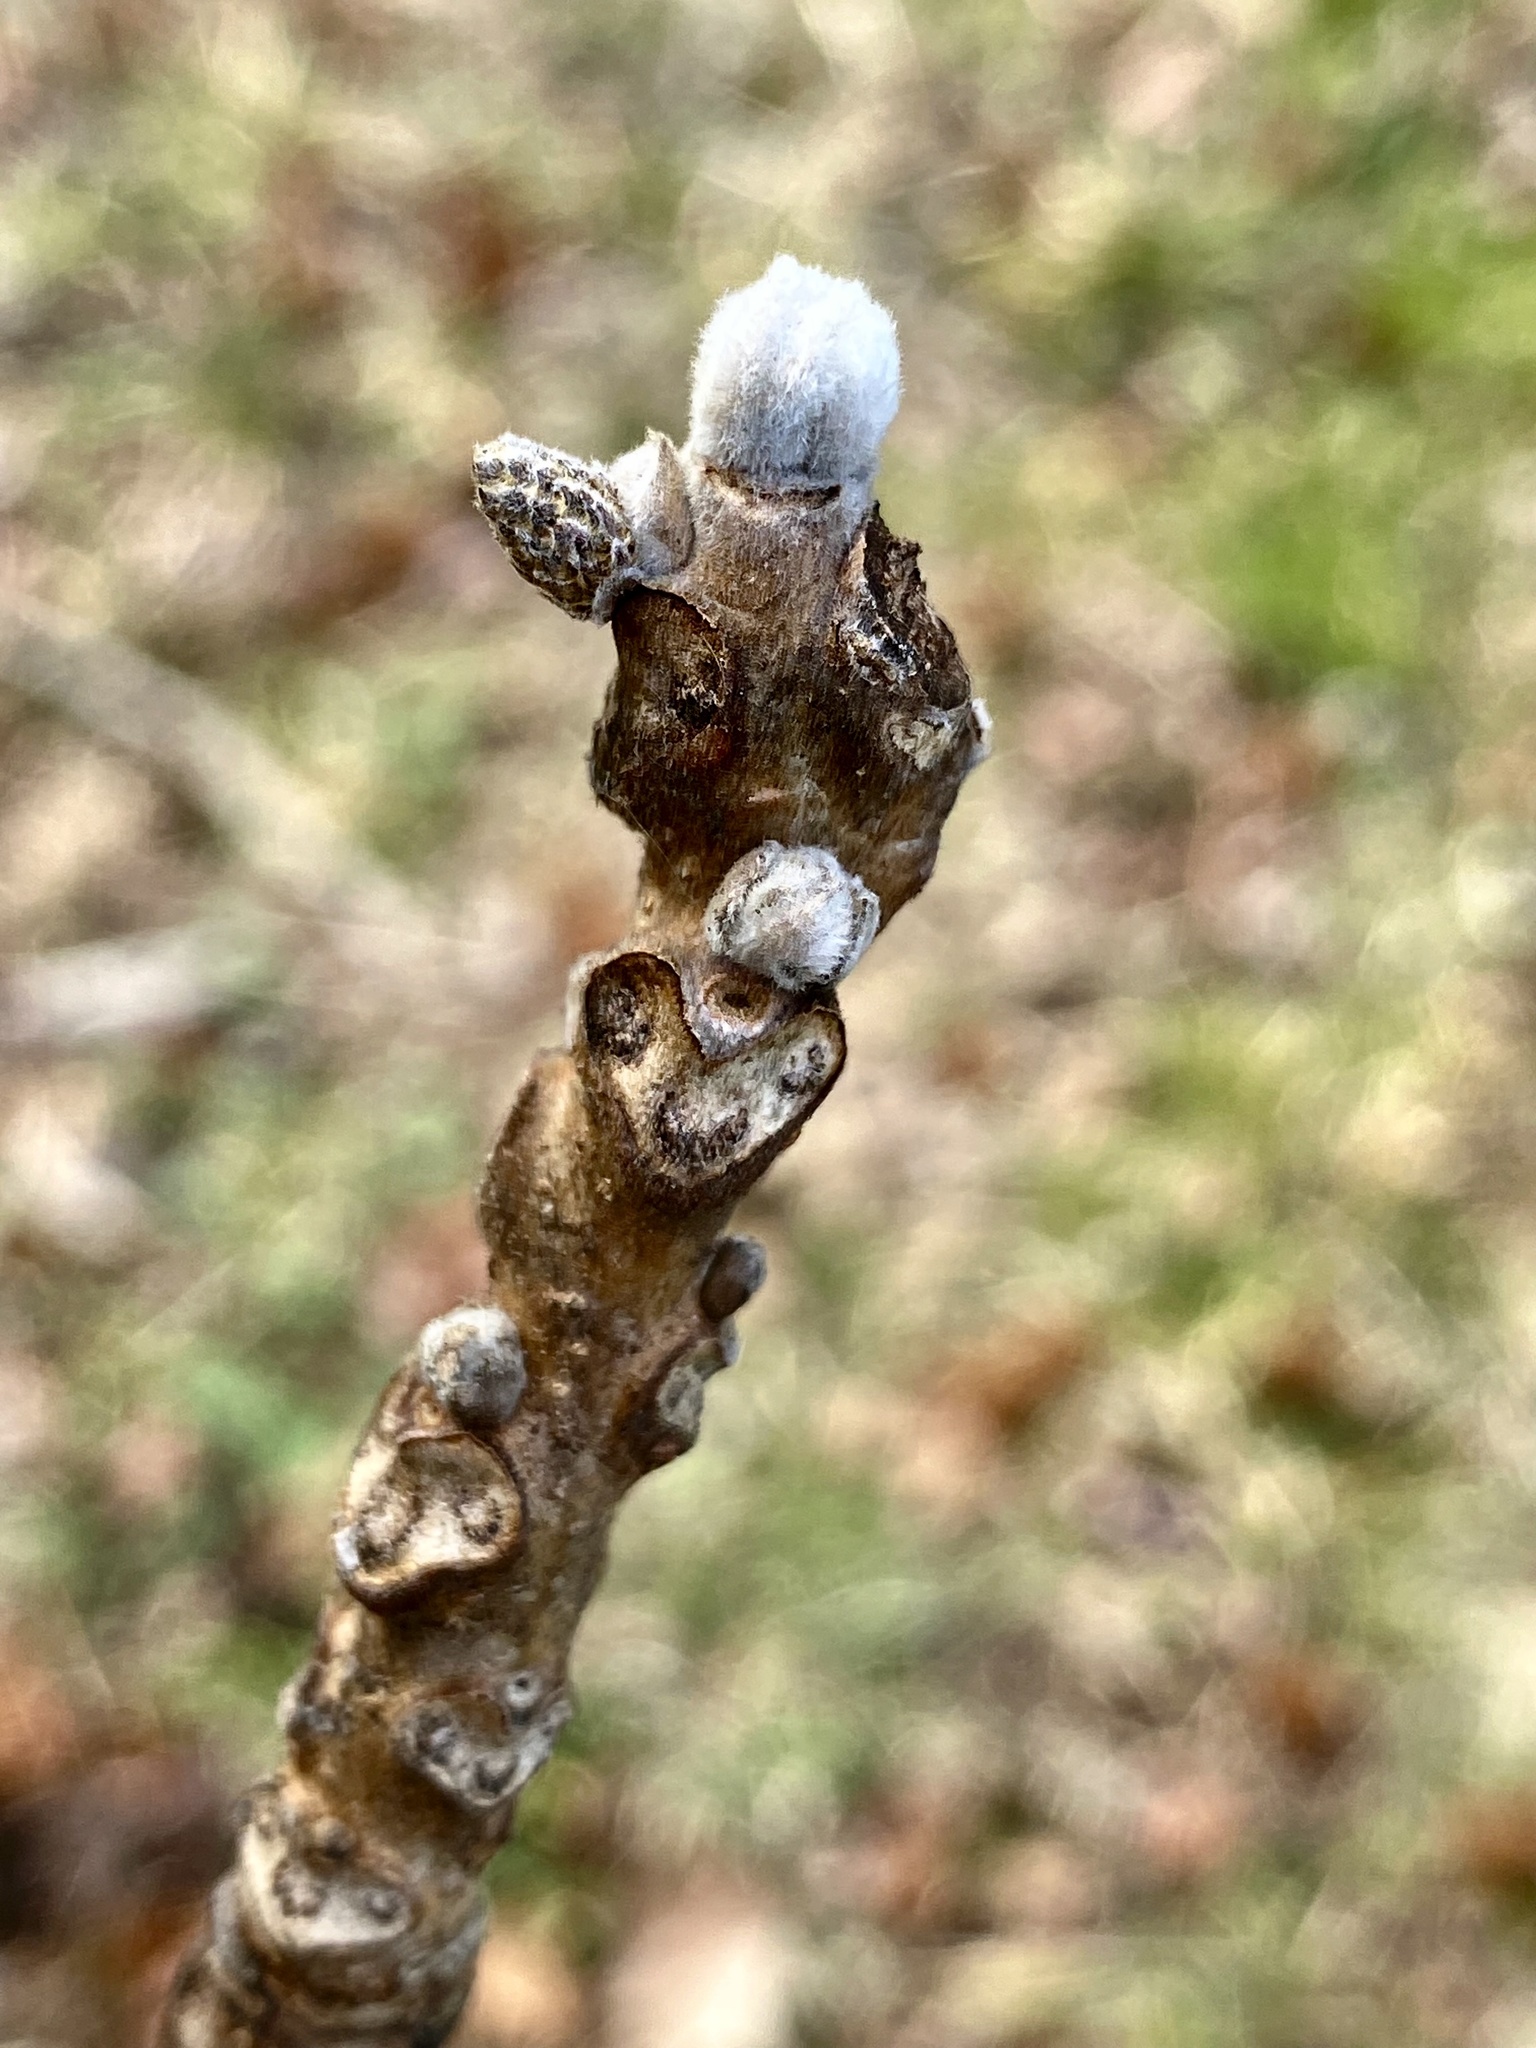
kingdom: Plantae
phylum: Tracheophyta
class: Magnoliopsida
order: Fagales
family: Juglandaceae
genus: Juglans
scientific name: Juglans nigra
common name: Black walnut
